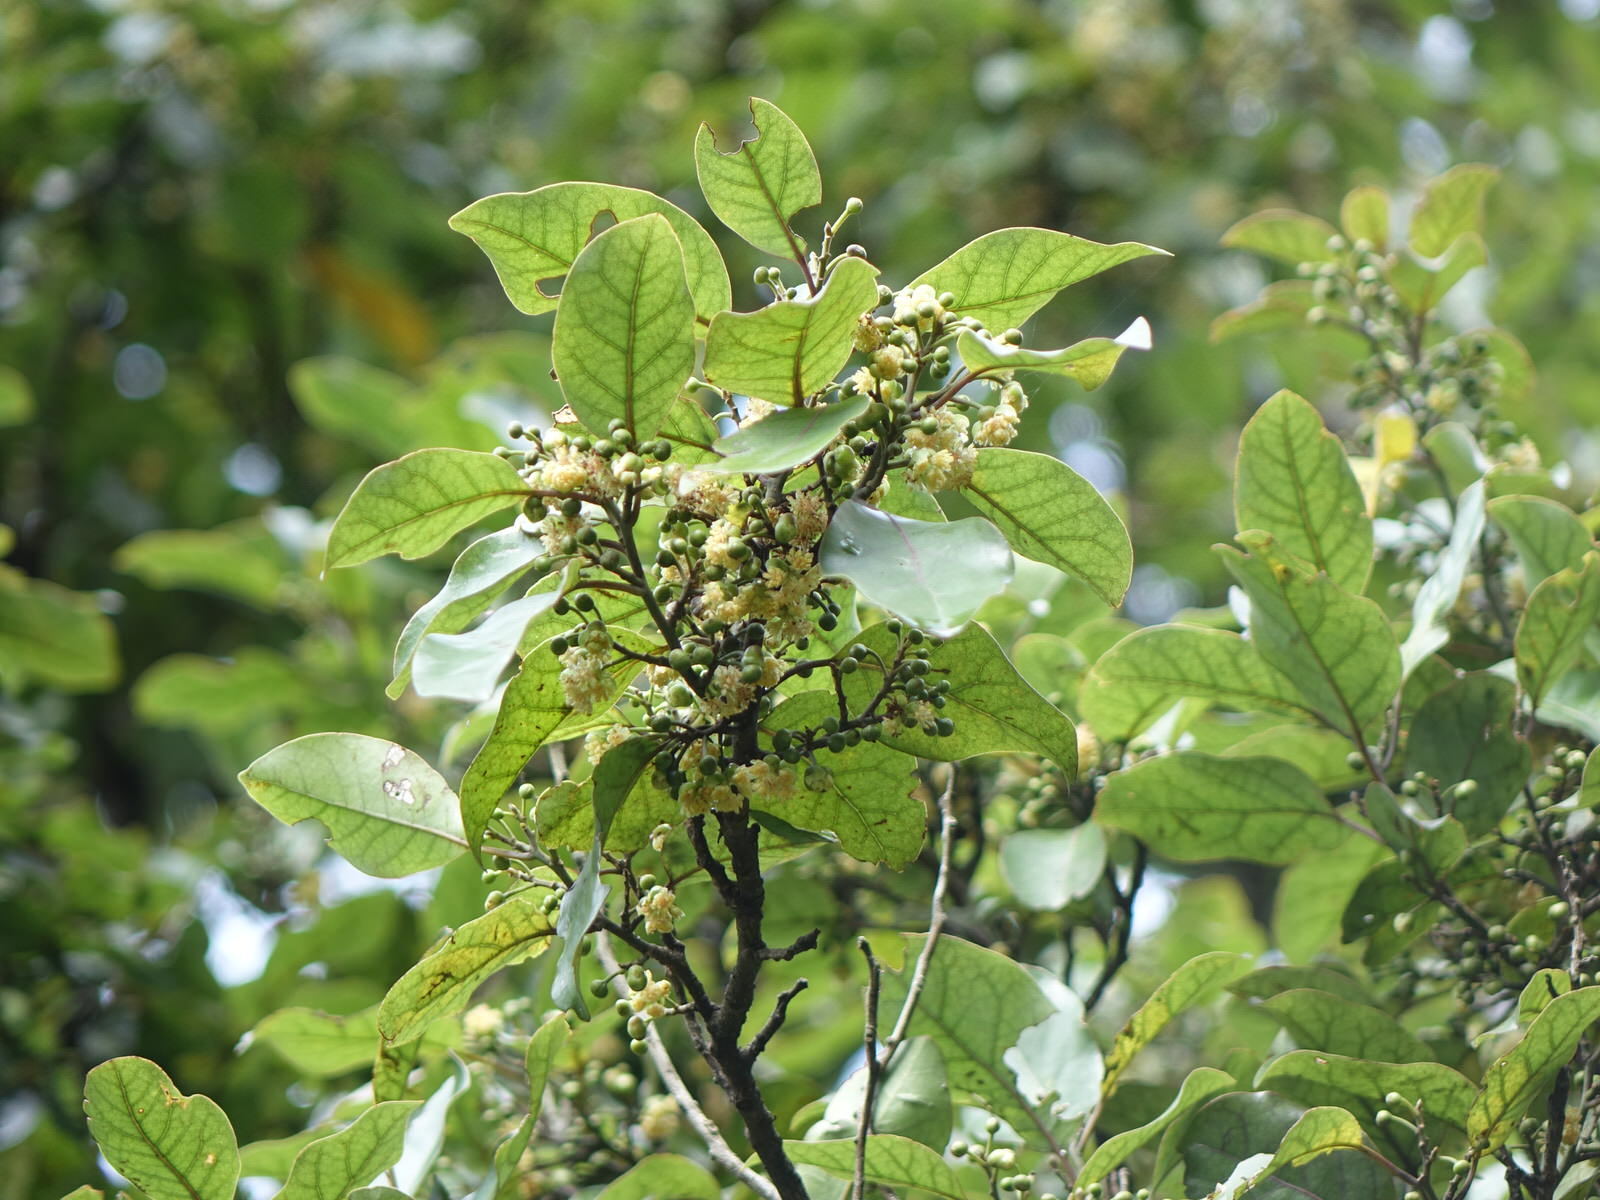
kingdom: Plantae
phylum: Tracheophyta
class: Magnoliopsida
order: Laurales
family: Lauraceae
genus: Litsea
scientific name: Litsea calicaris
